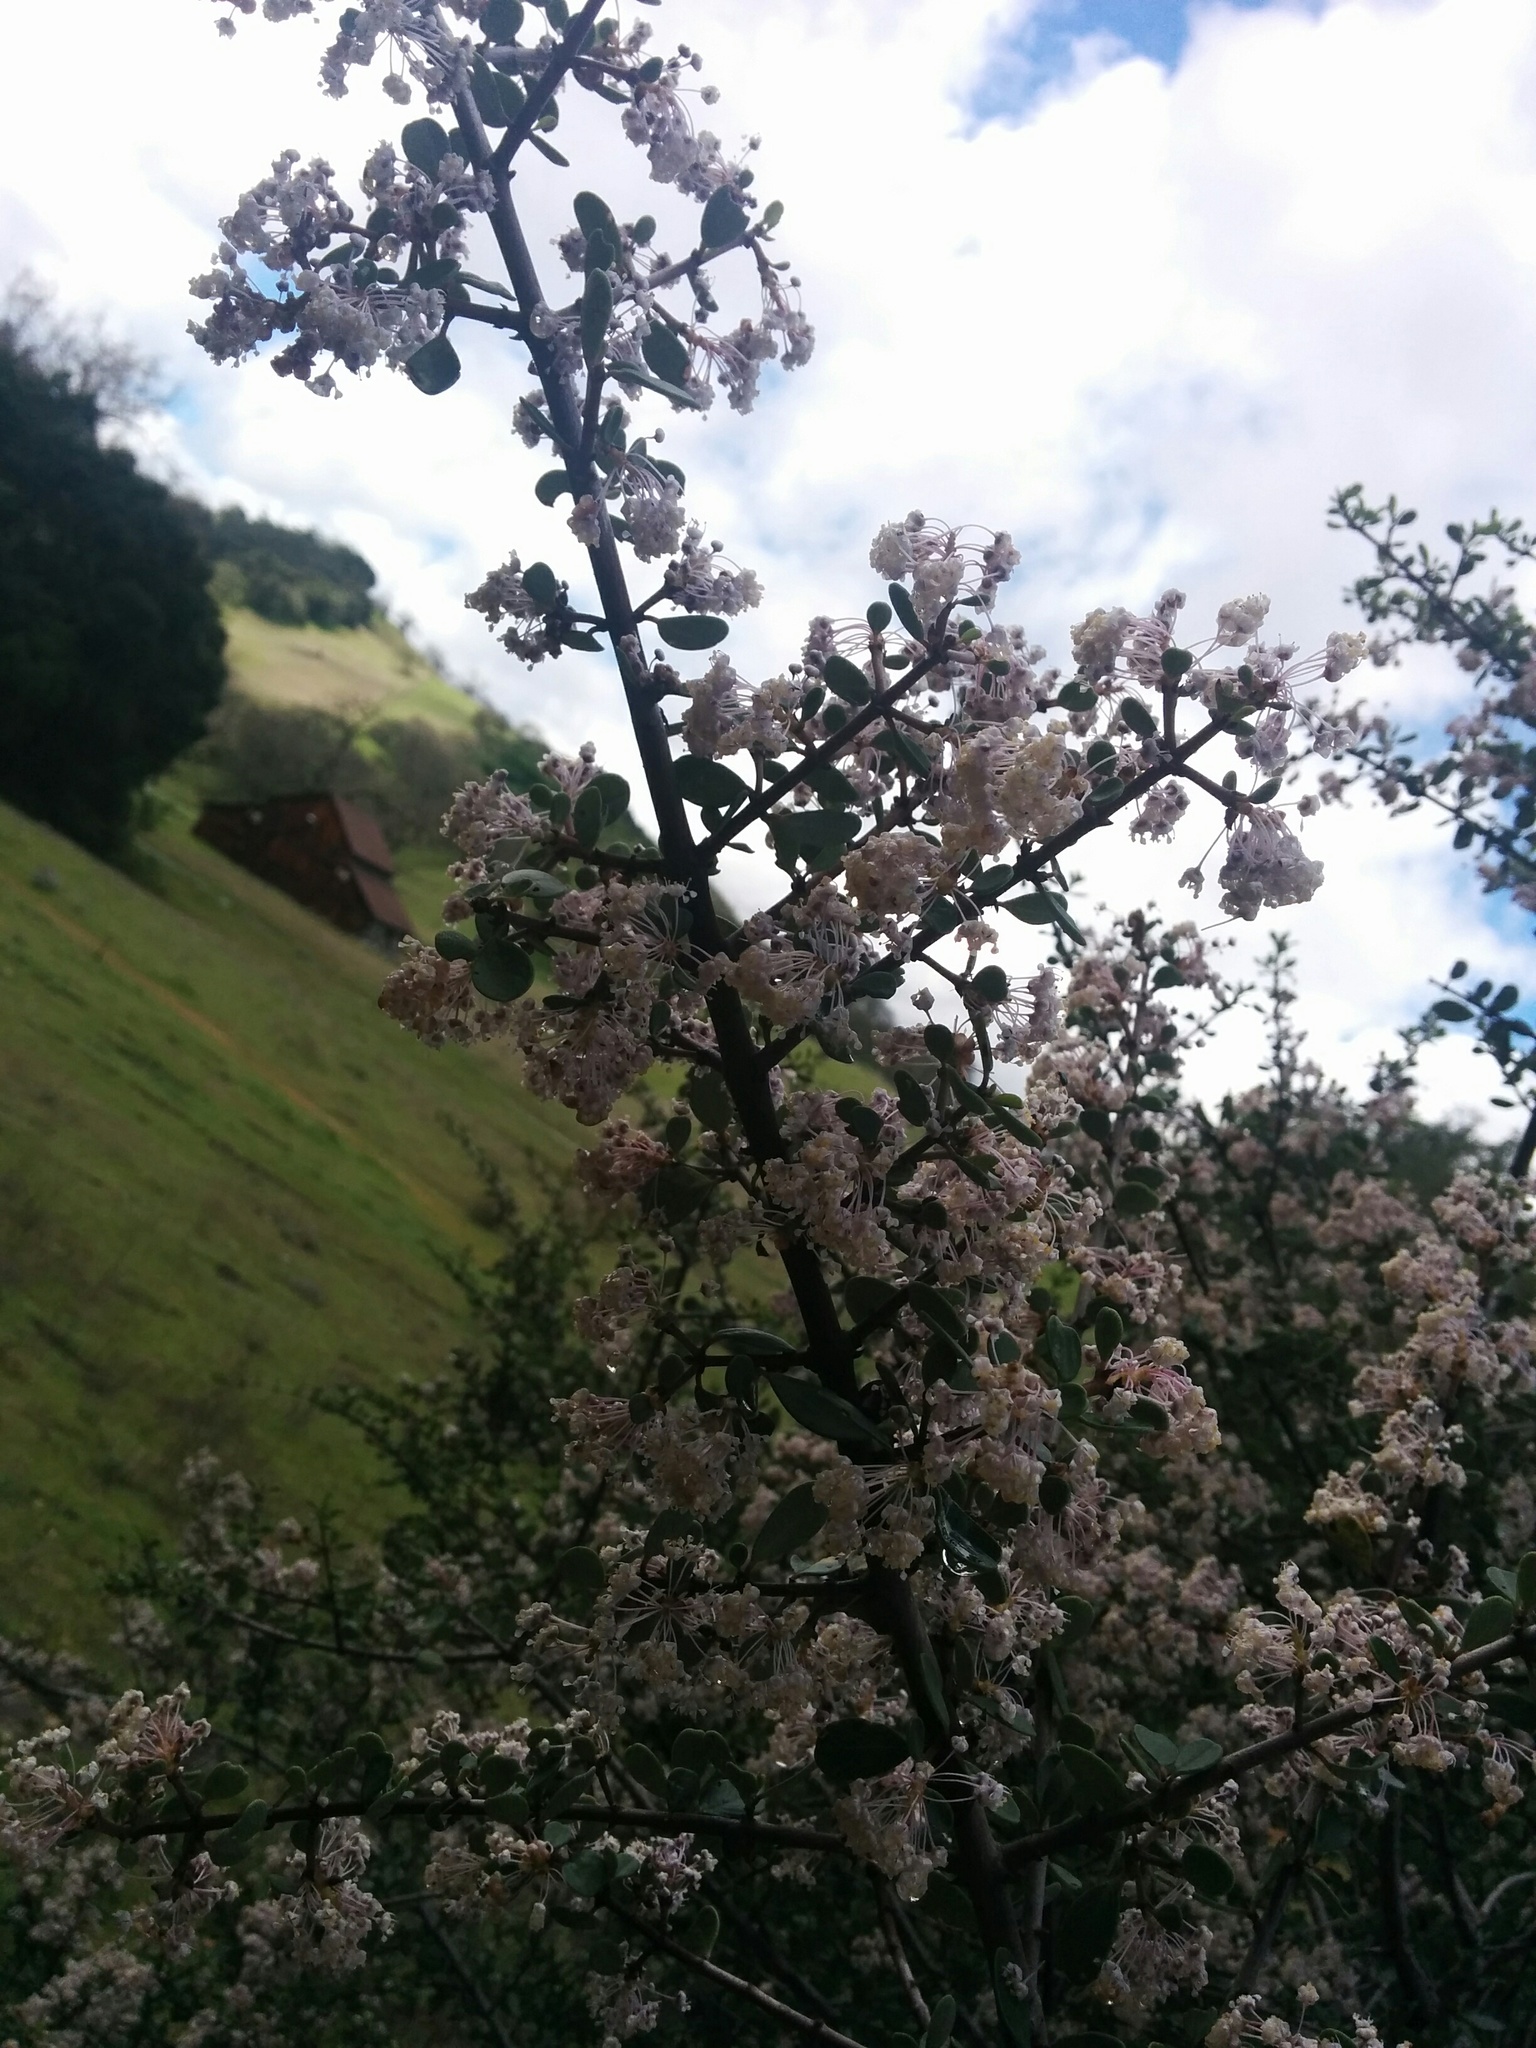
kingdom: Plantae
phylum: Tracheophyta
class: Magnoliopsida
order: Rosales
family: Rhamnaceae
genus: Ceanothus
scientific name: Ceanothus cuneatus
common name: Cuneate ceanothus
